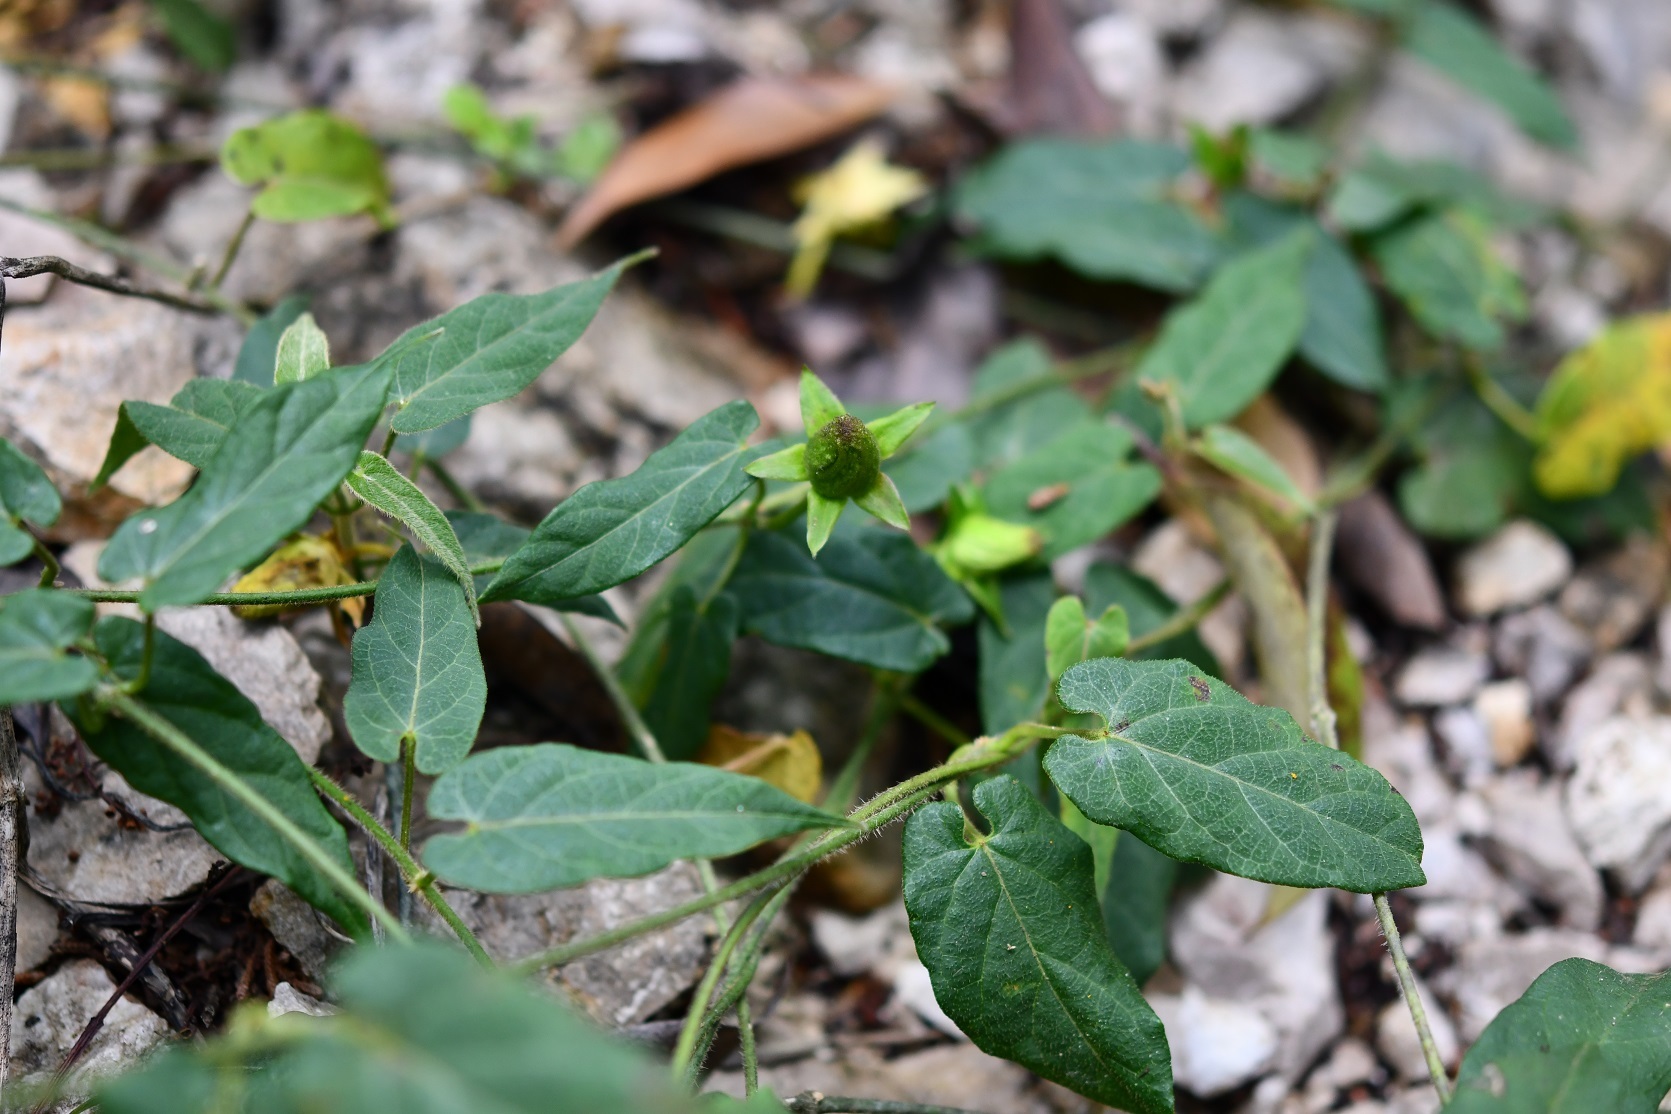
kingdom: Plantae
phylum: Tracheophyta
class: Magnoliopsida
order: Gentianales
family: Apocynaceae
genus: Gonolobus
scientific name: Gonolobus incerianus
